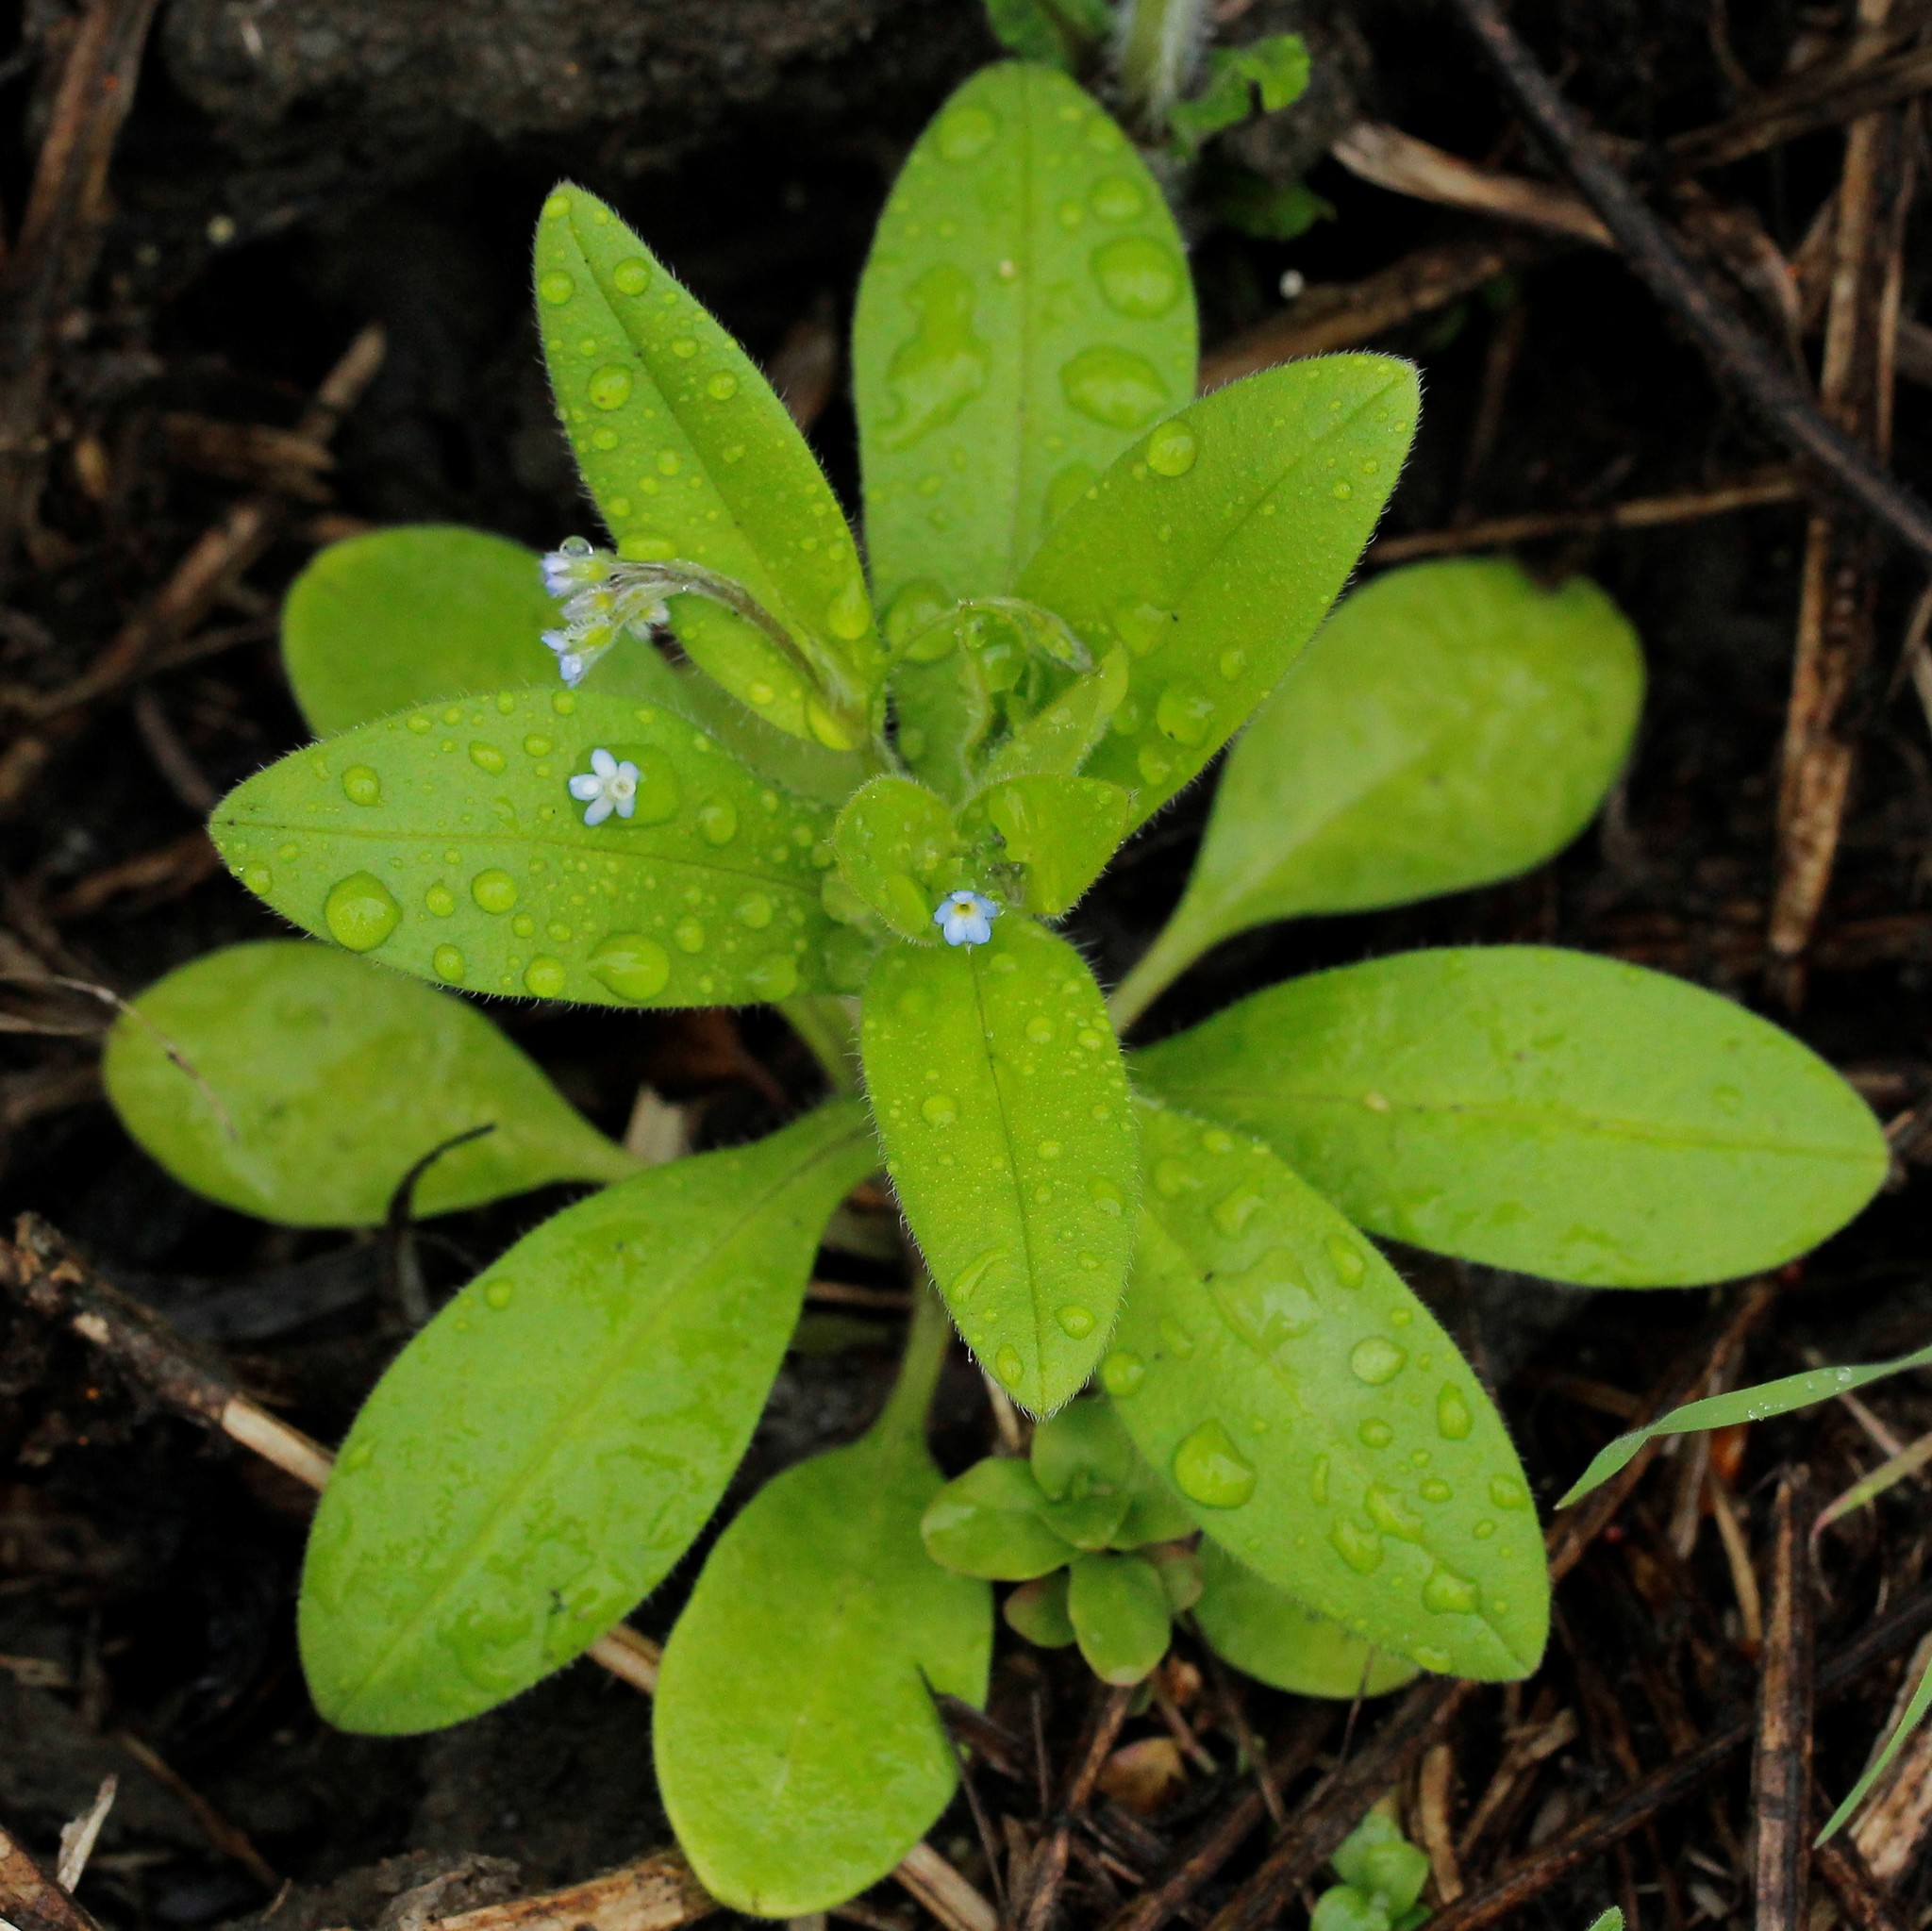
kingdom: Plantae
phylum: Tracheophyta
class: Magnoliopsida
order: Boraginales
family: Boraginaceae
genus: Myosotis
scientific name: Myosotis sparsiflora
